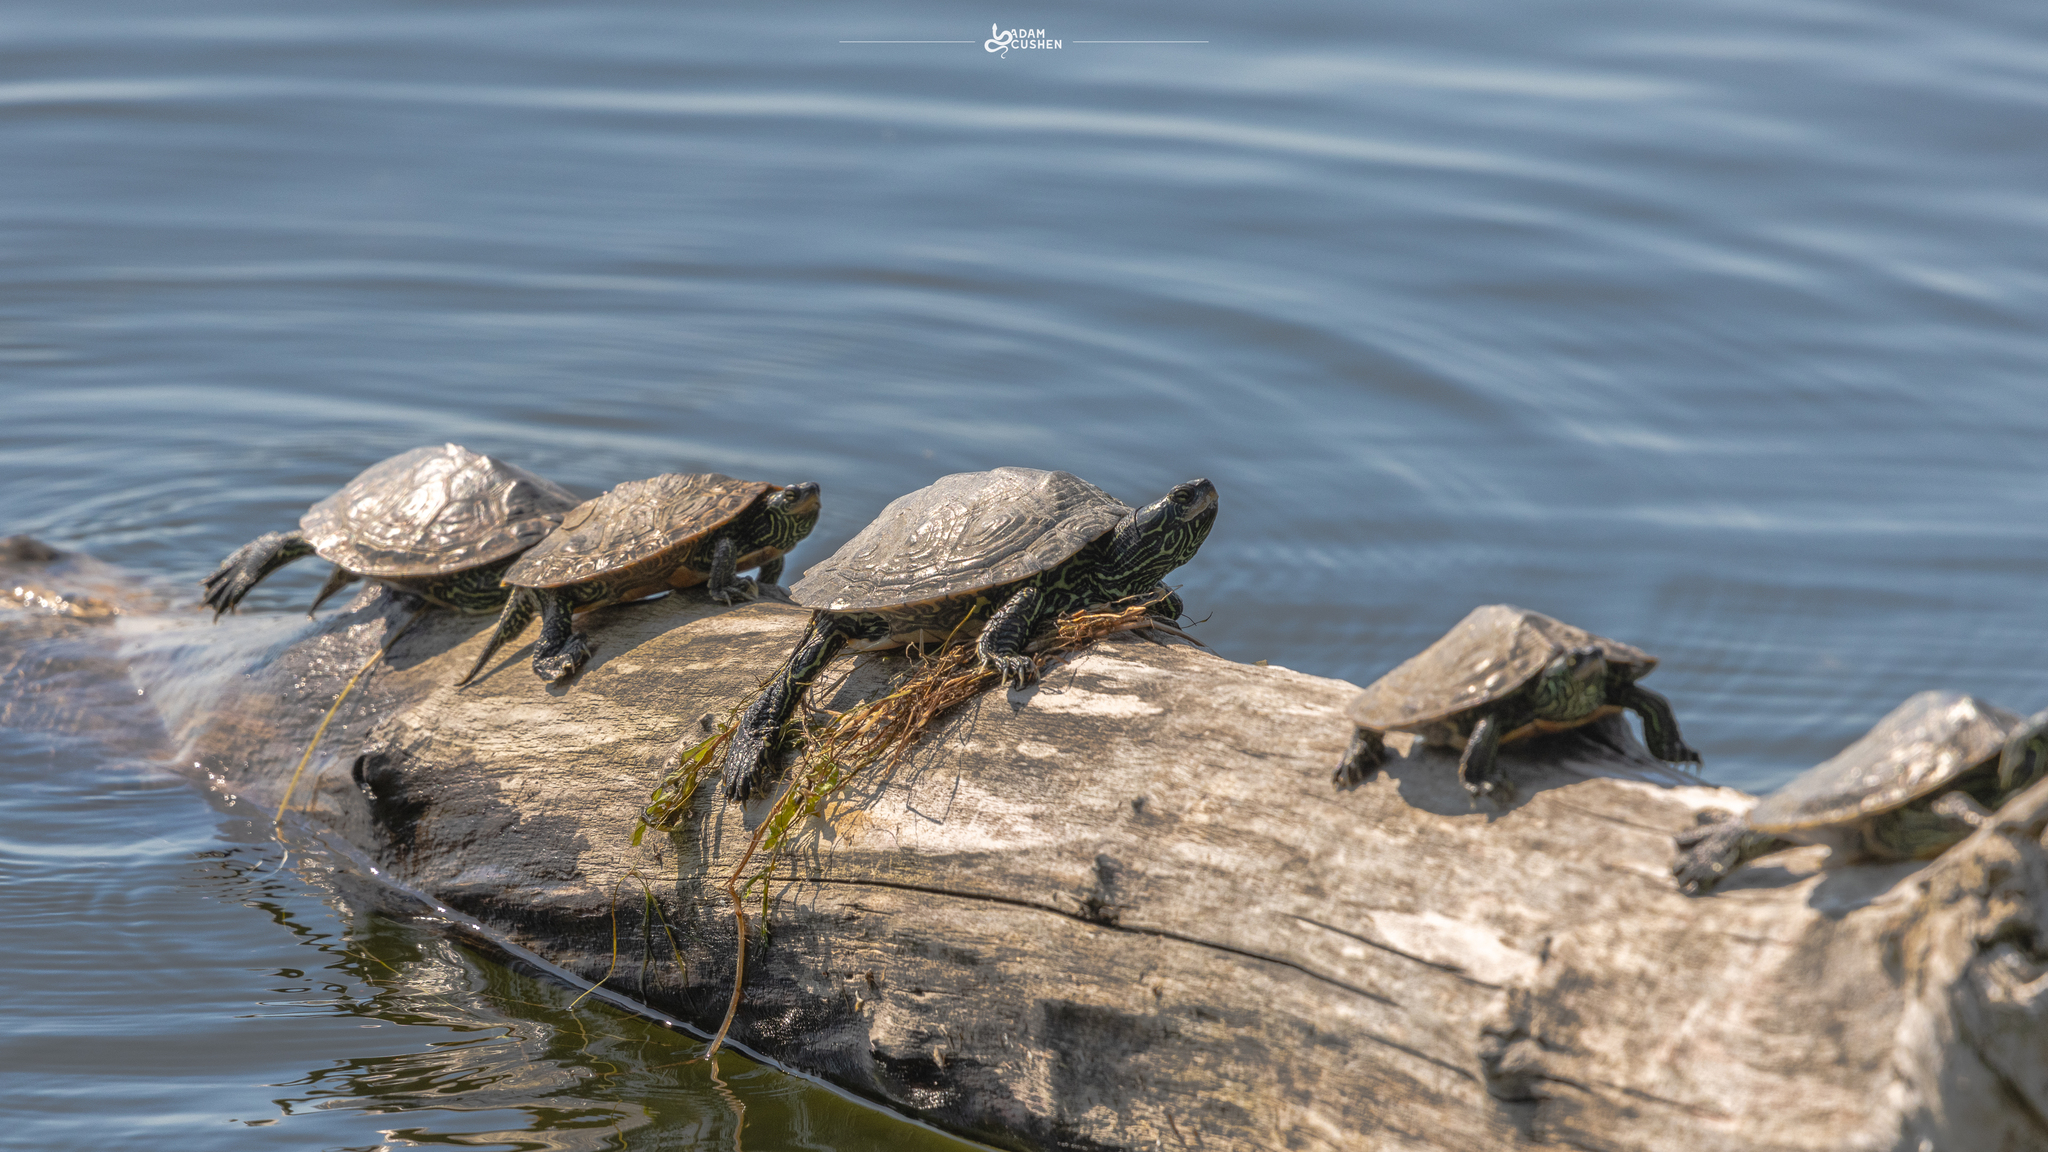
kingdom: Animalia
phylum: Chordata
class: Testudines
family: Emydidae
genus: Graptemys
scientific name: Graptemys geographica
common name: Common map turtle
